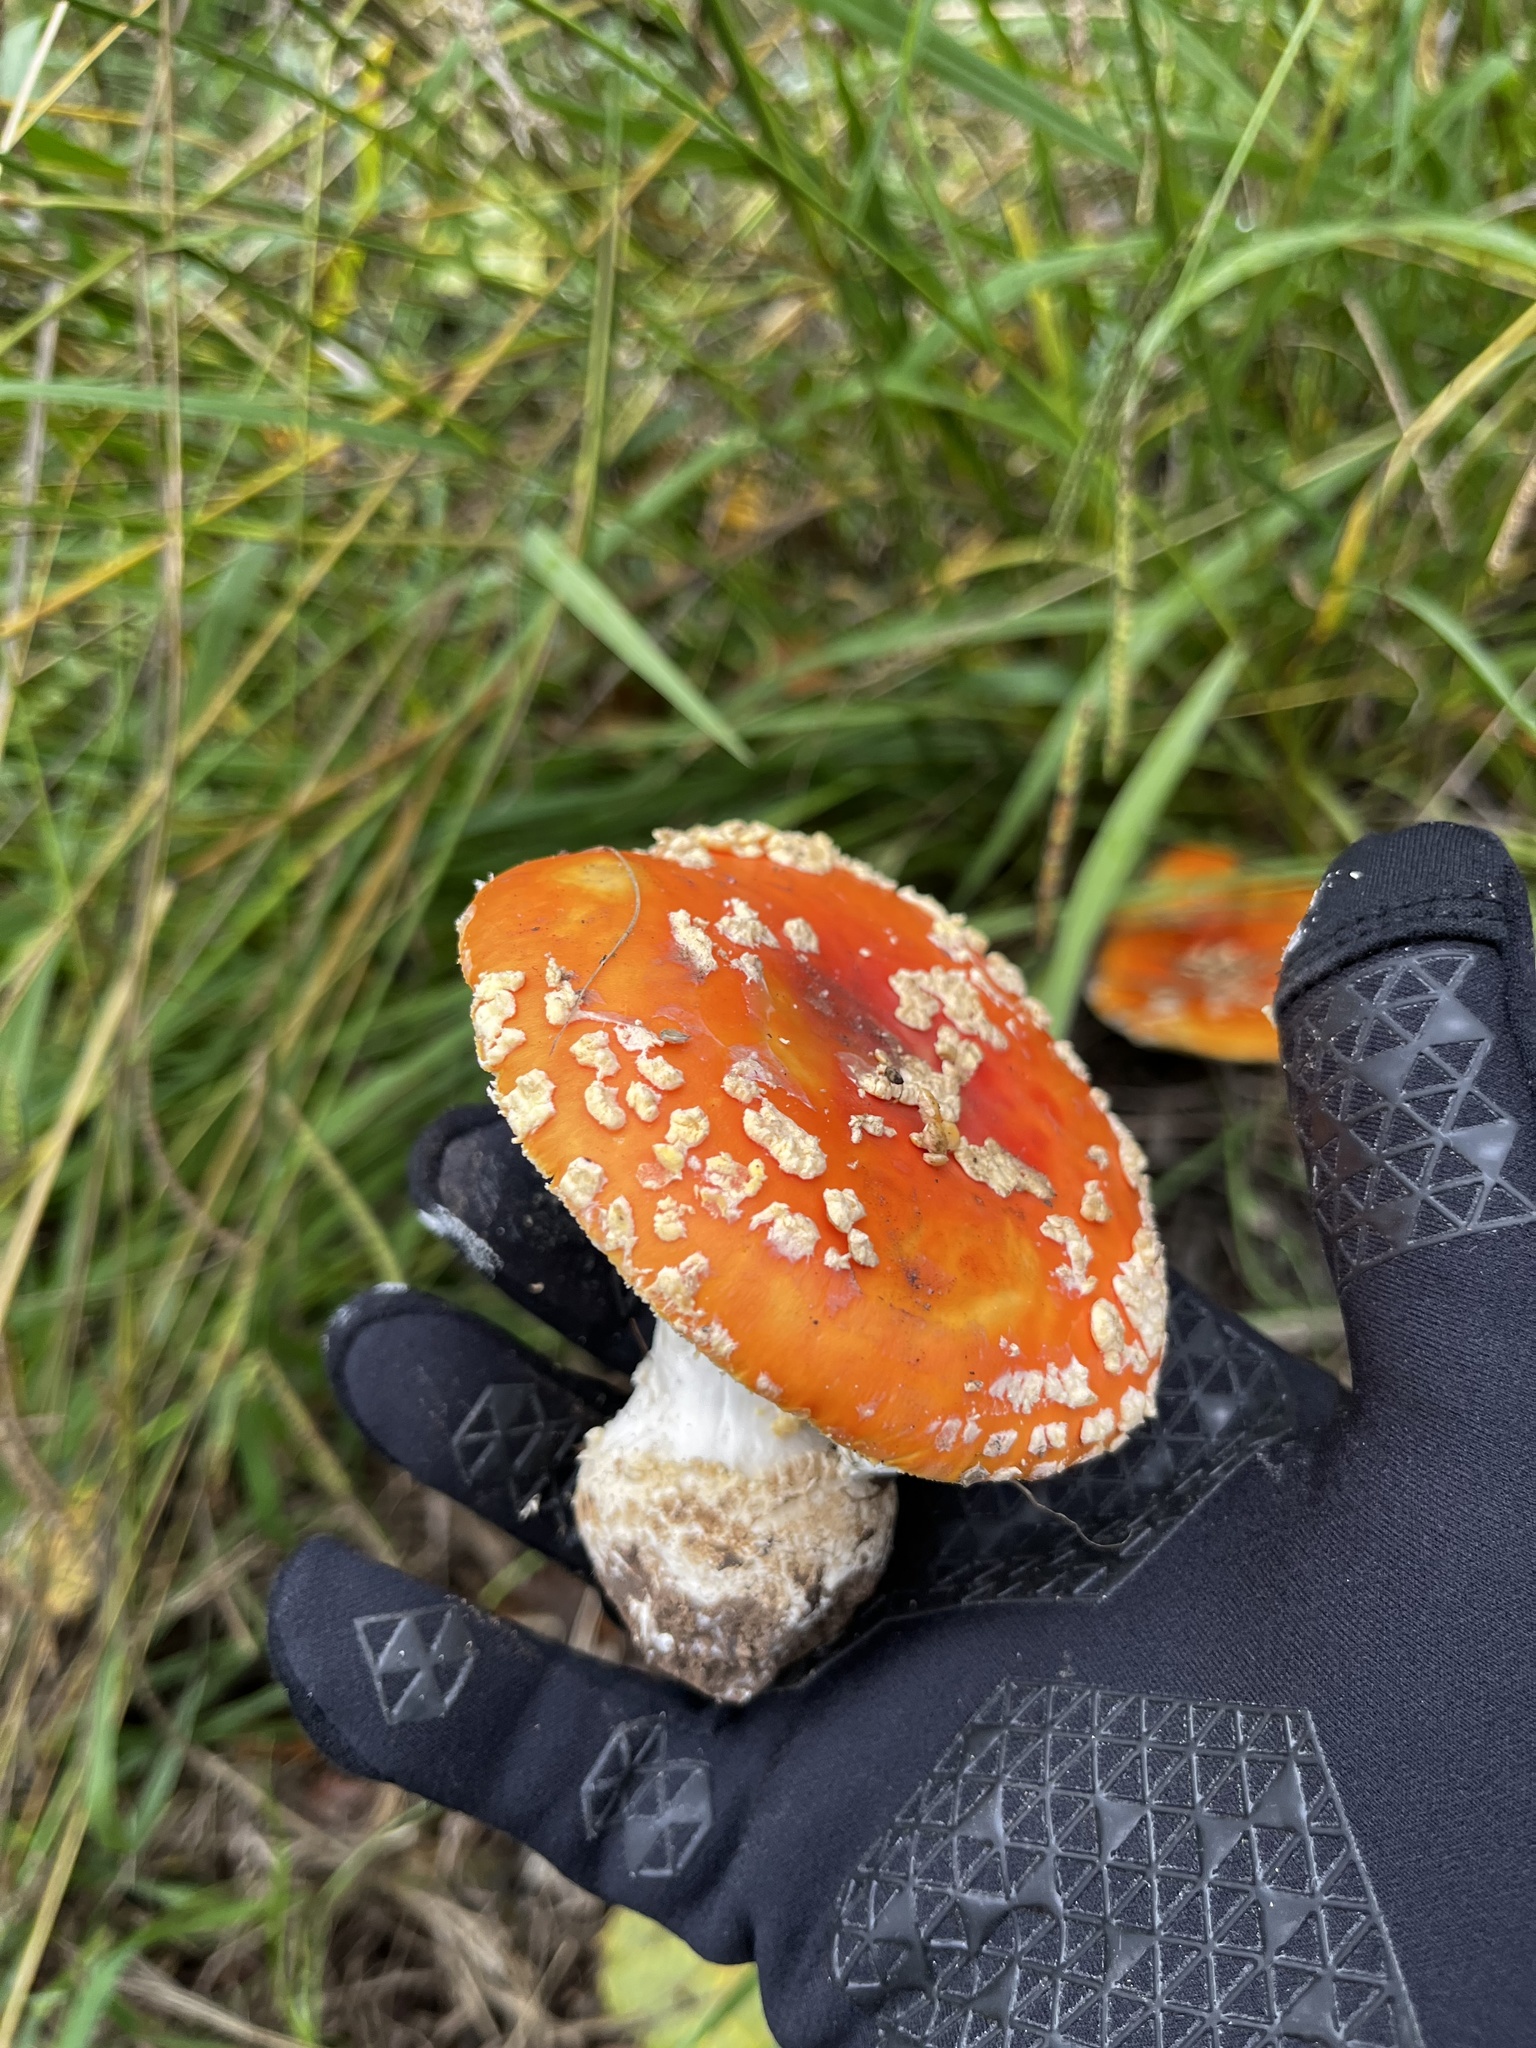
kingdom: Fungi
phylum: Basidiomycota
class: Agaricomycetes
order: Agaricales
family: Amanitaceae
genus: Amanita
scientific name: Amanita muscaria
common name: Fly agaric
